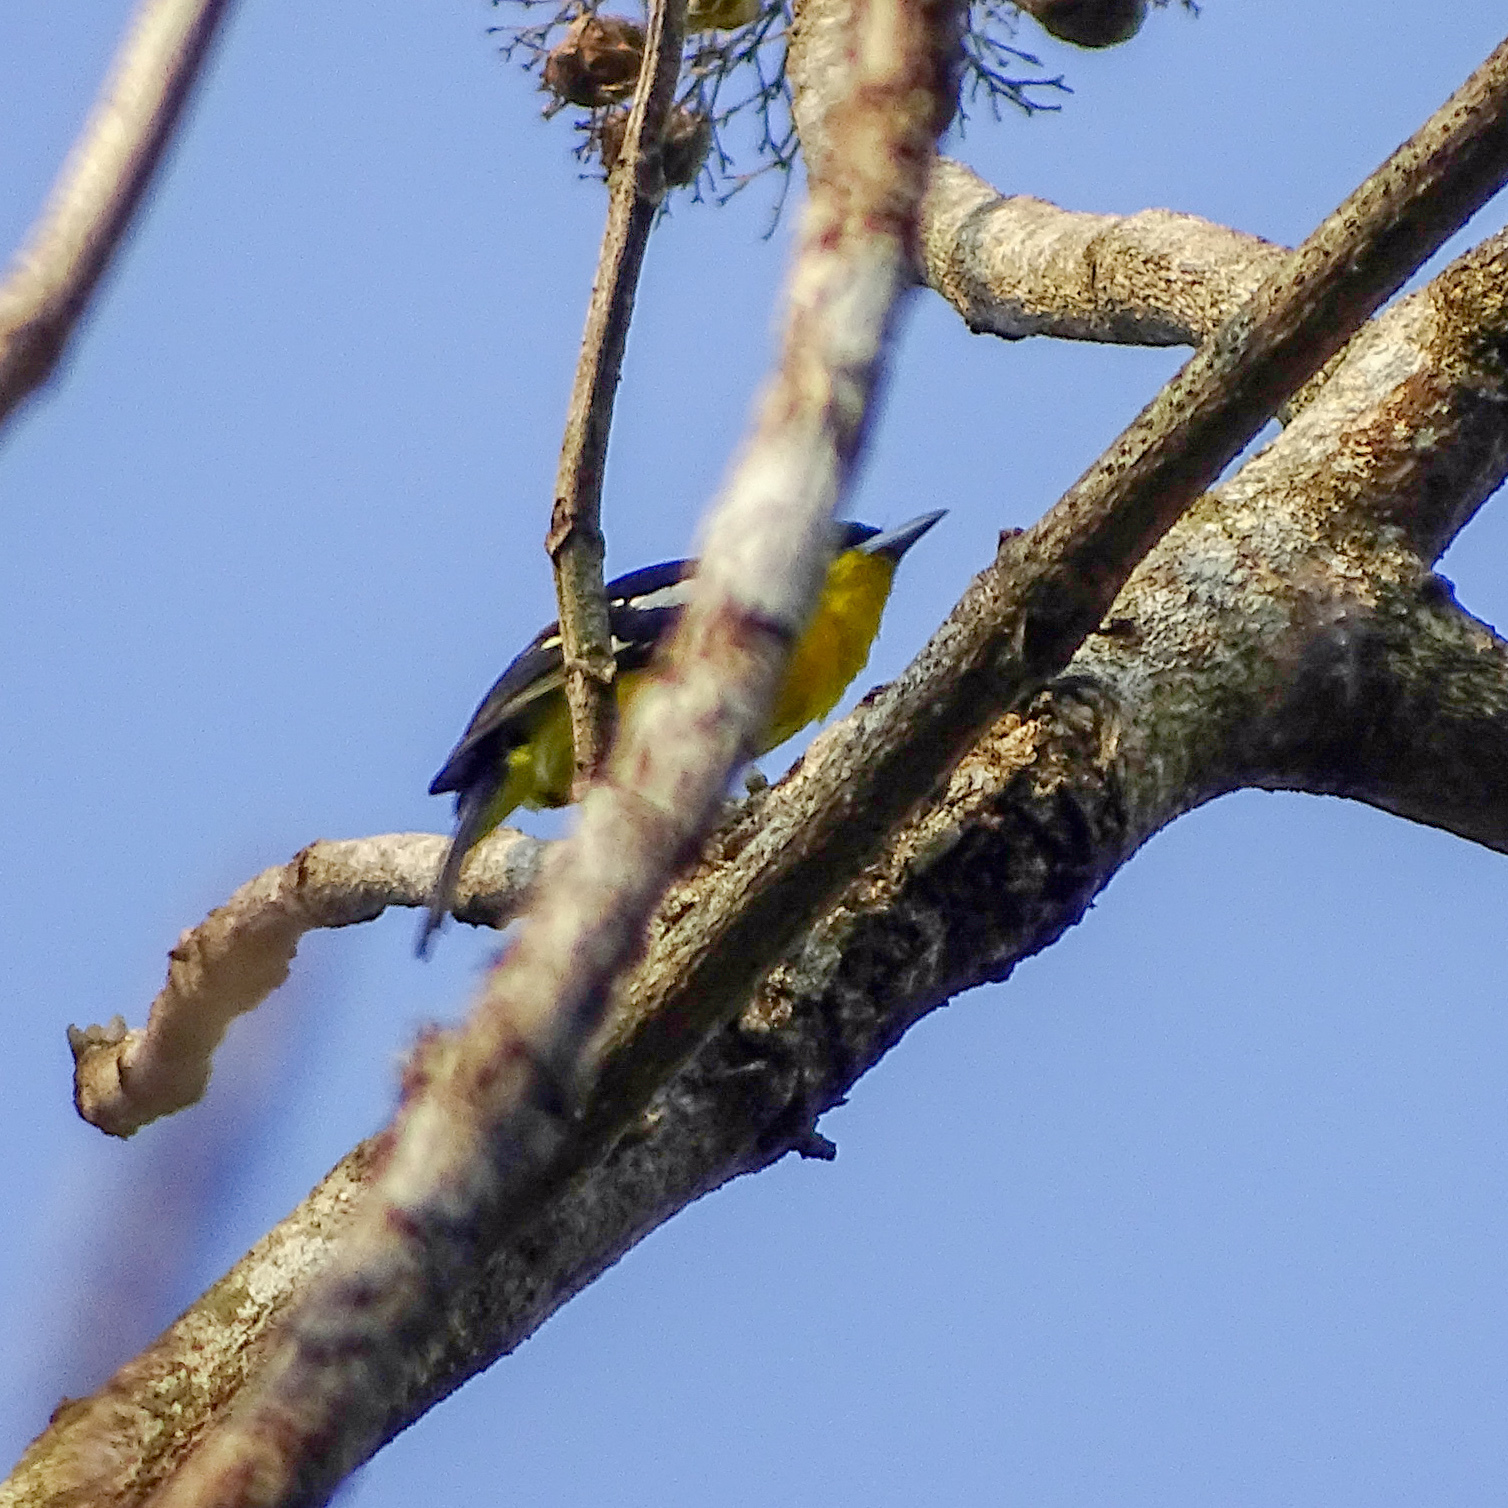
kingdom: Animalia
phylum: Chordata
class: Aves
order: Passeriformes
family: Aegithinidae
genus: Aegithina
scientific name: Aegithina tiphia
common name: Common iora
